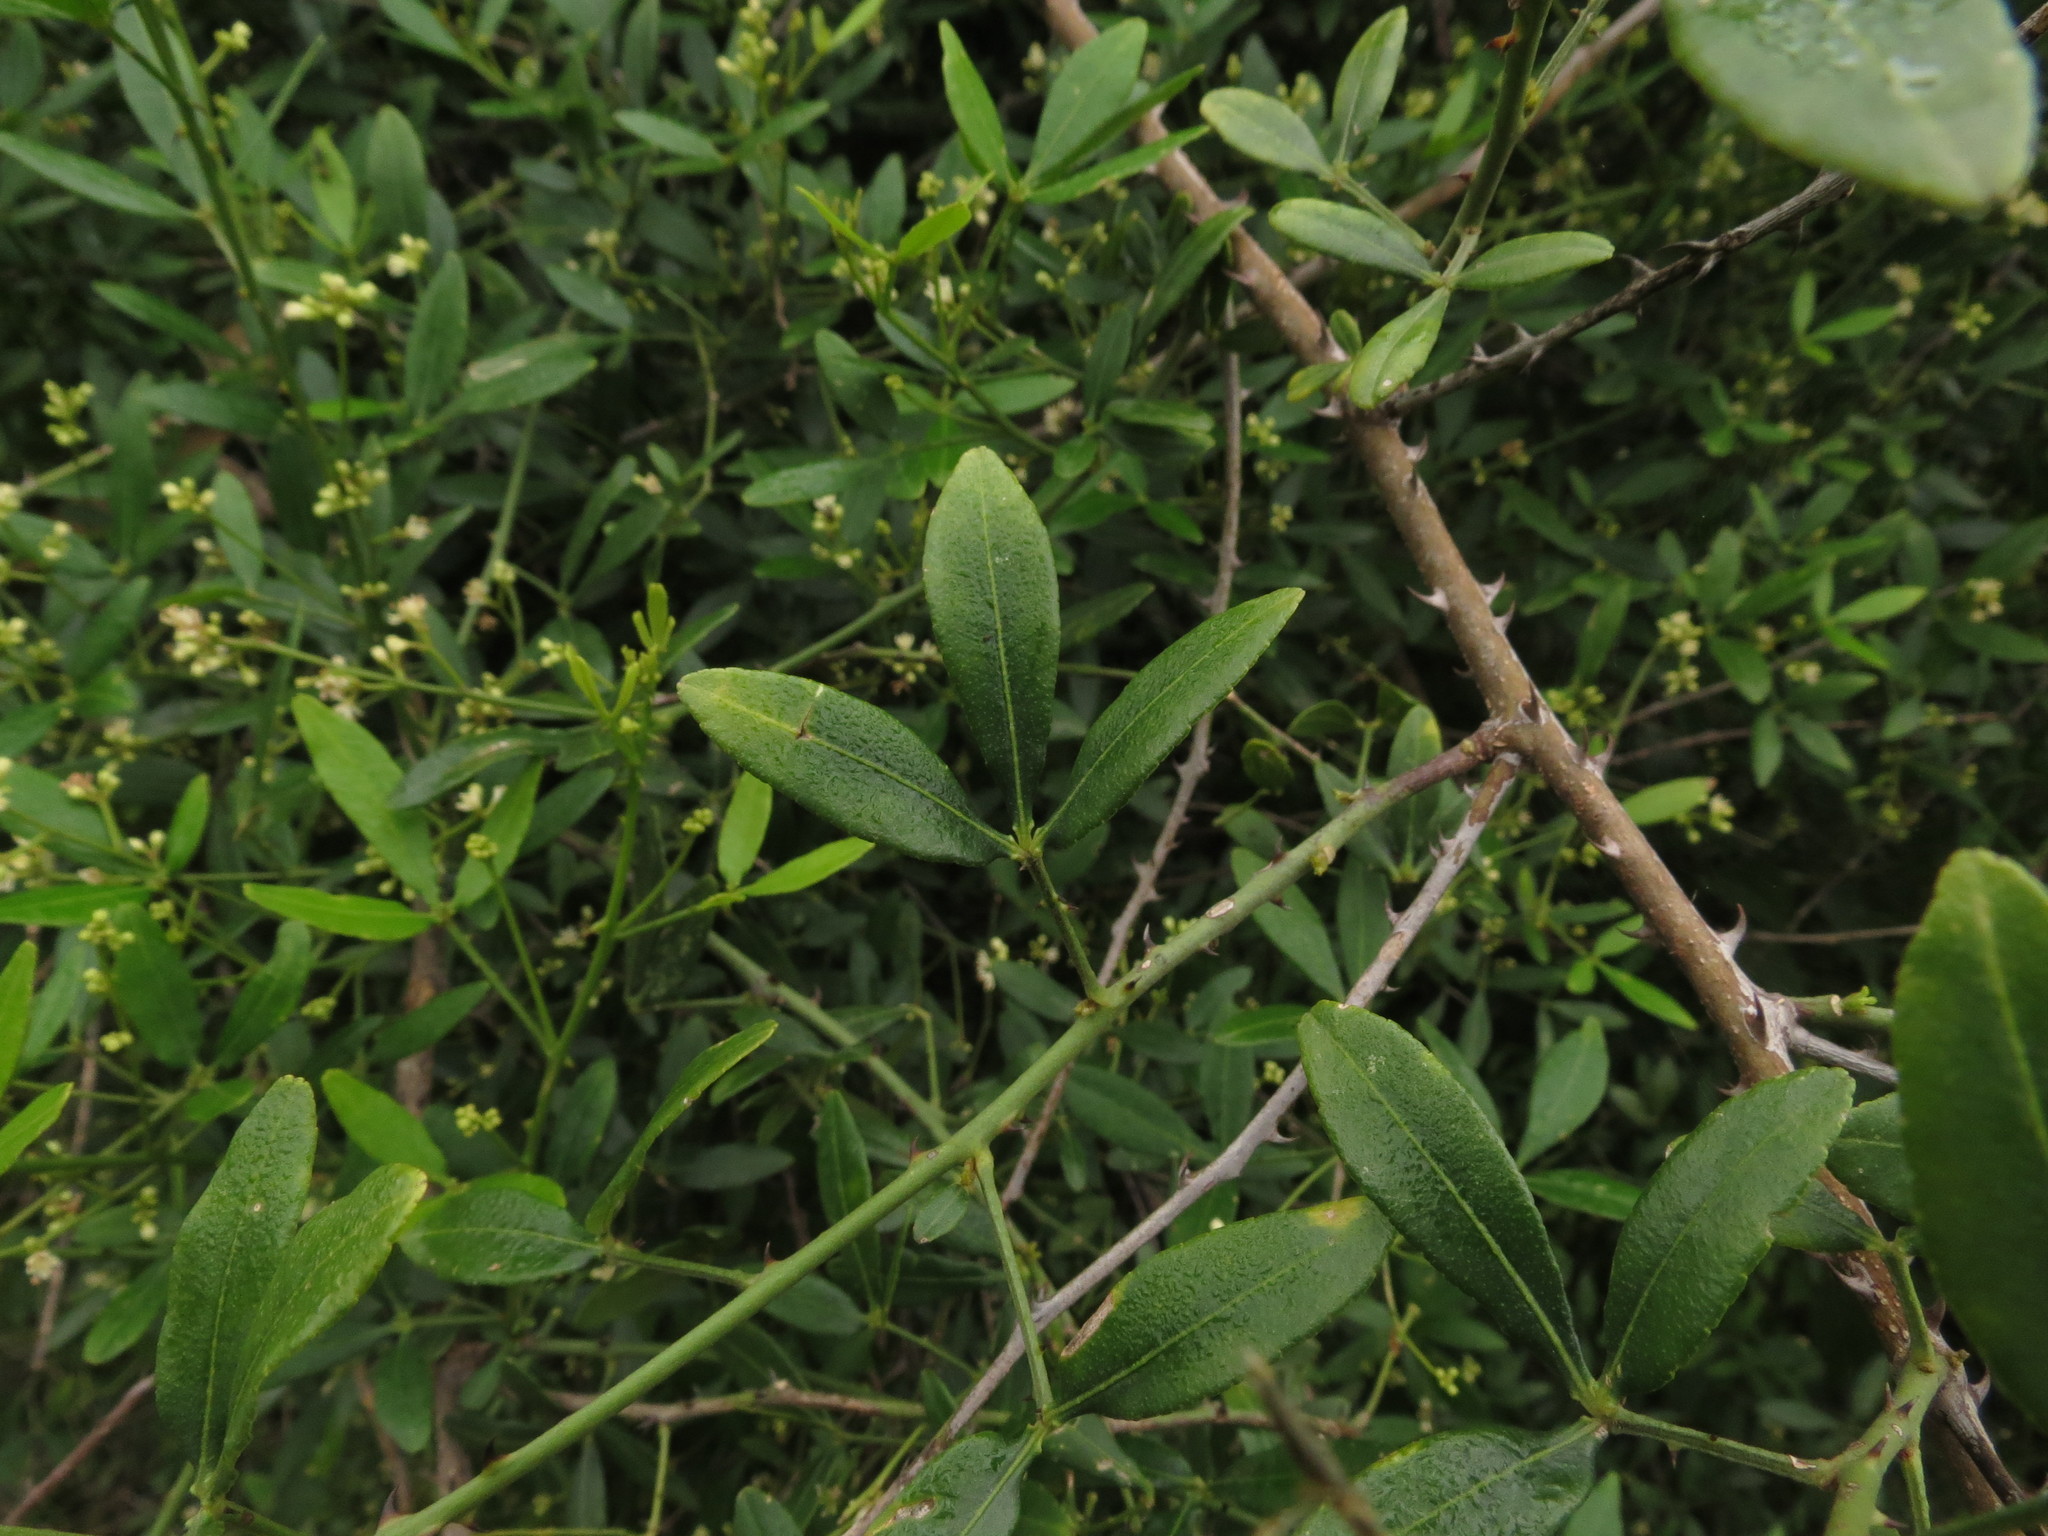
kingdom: Plantae
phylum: Tracheophyta
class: Magnoliopsida
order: Sapindales
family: Rutaceae
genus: Zanthoxylum
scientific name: Zanthoxylum asiaticum
